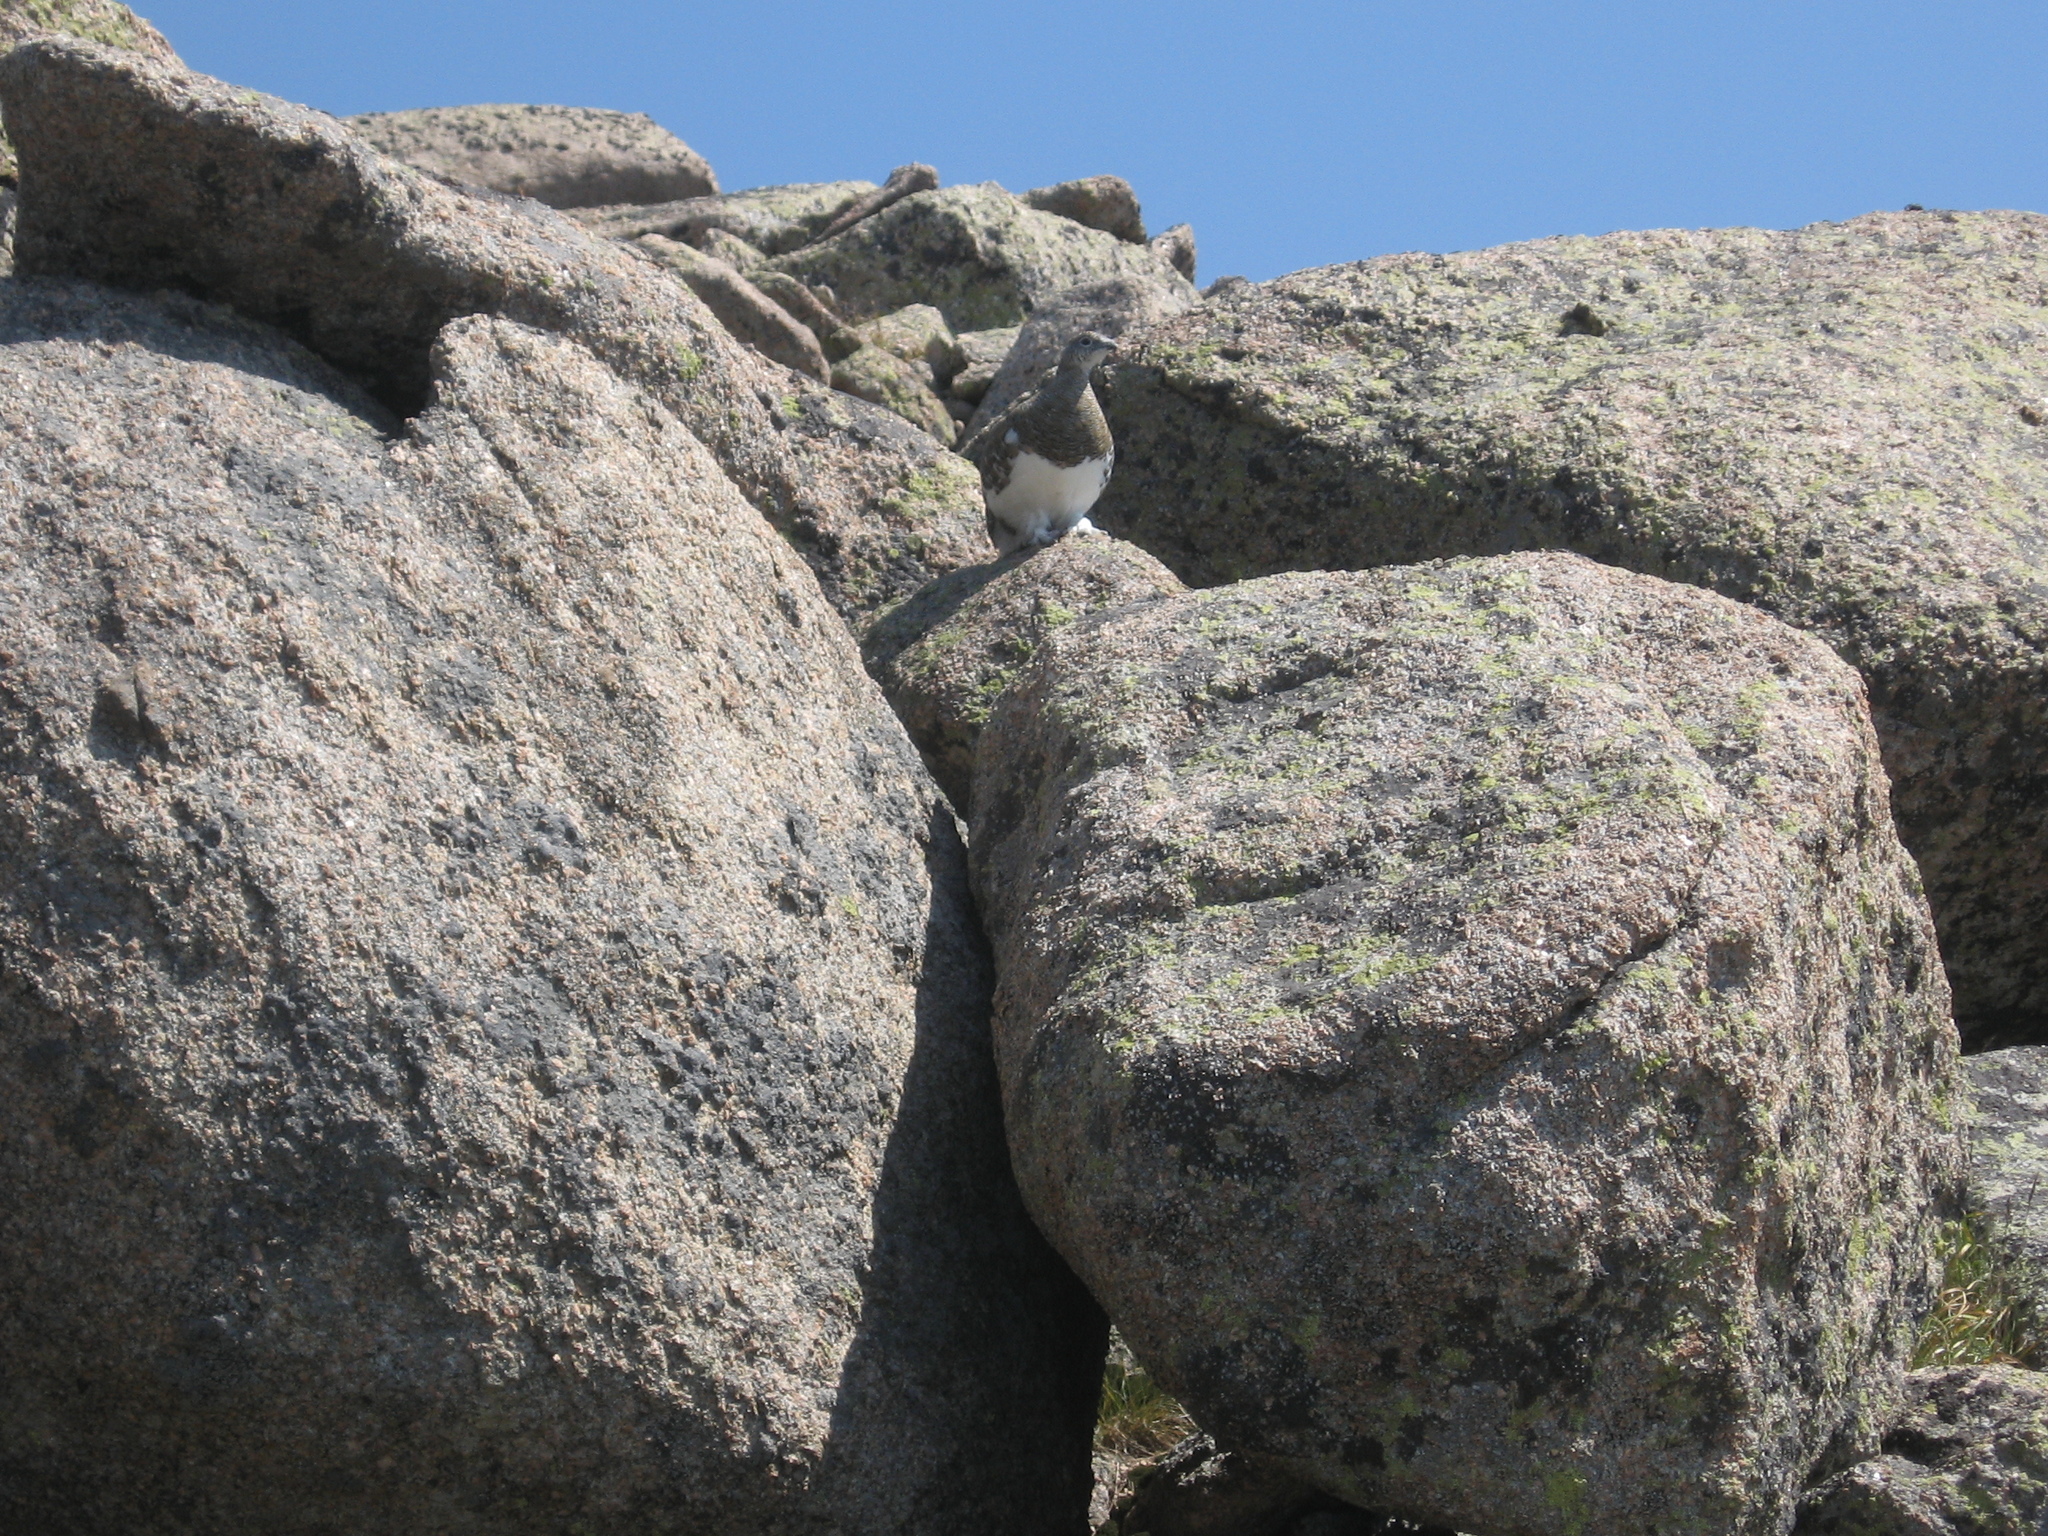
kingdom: Animalia
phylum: Chordata
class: Aves
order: Galliformes
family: Phasianidae
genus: Lagopus
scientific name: Lagopus muta
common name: Rock ptarmigan
